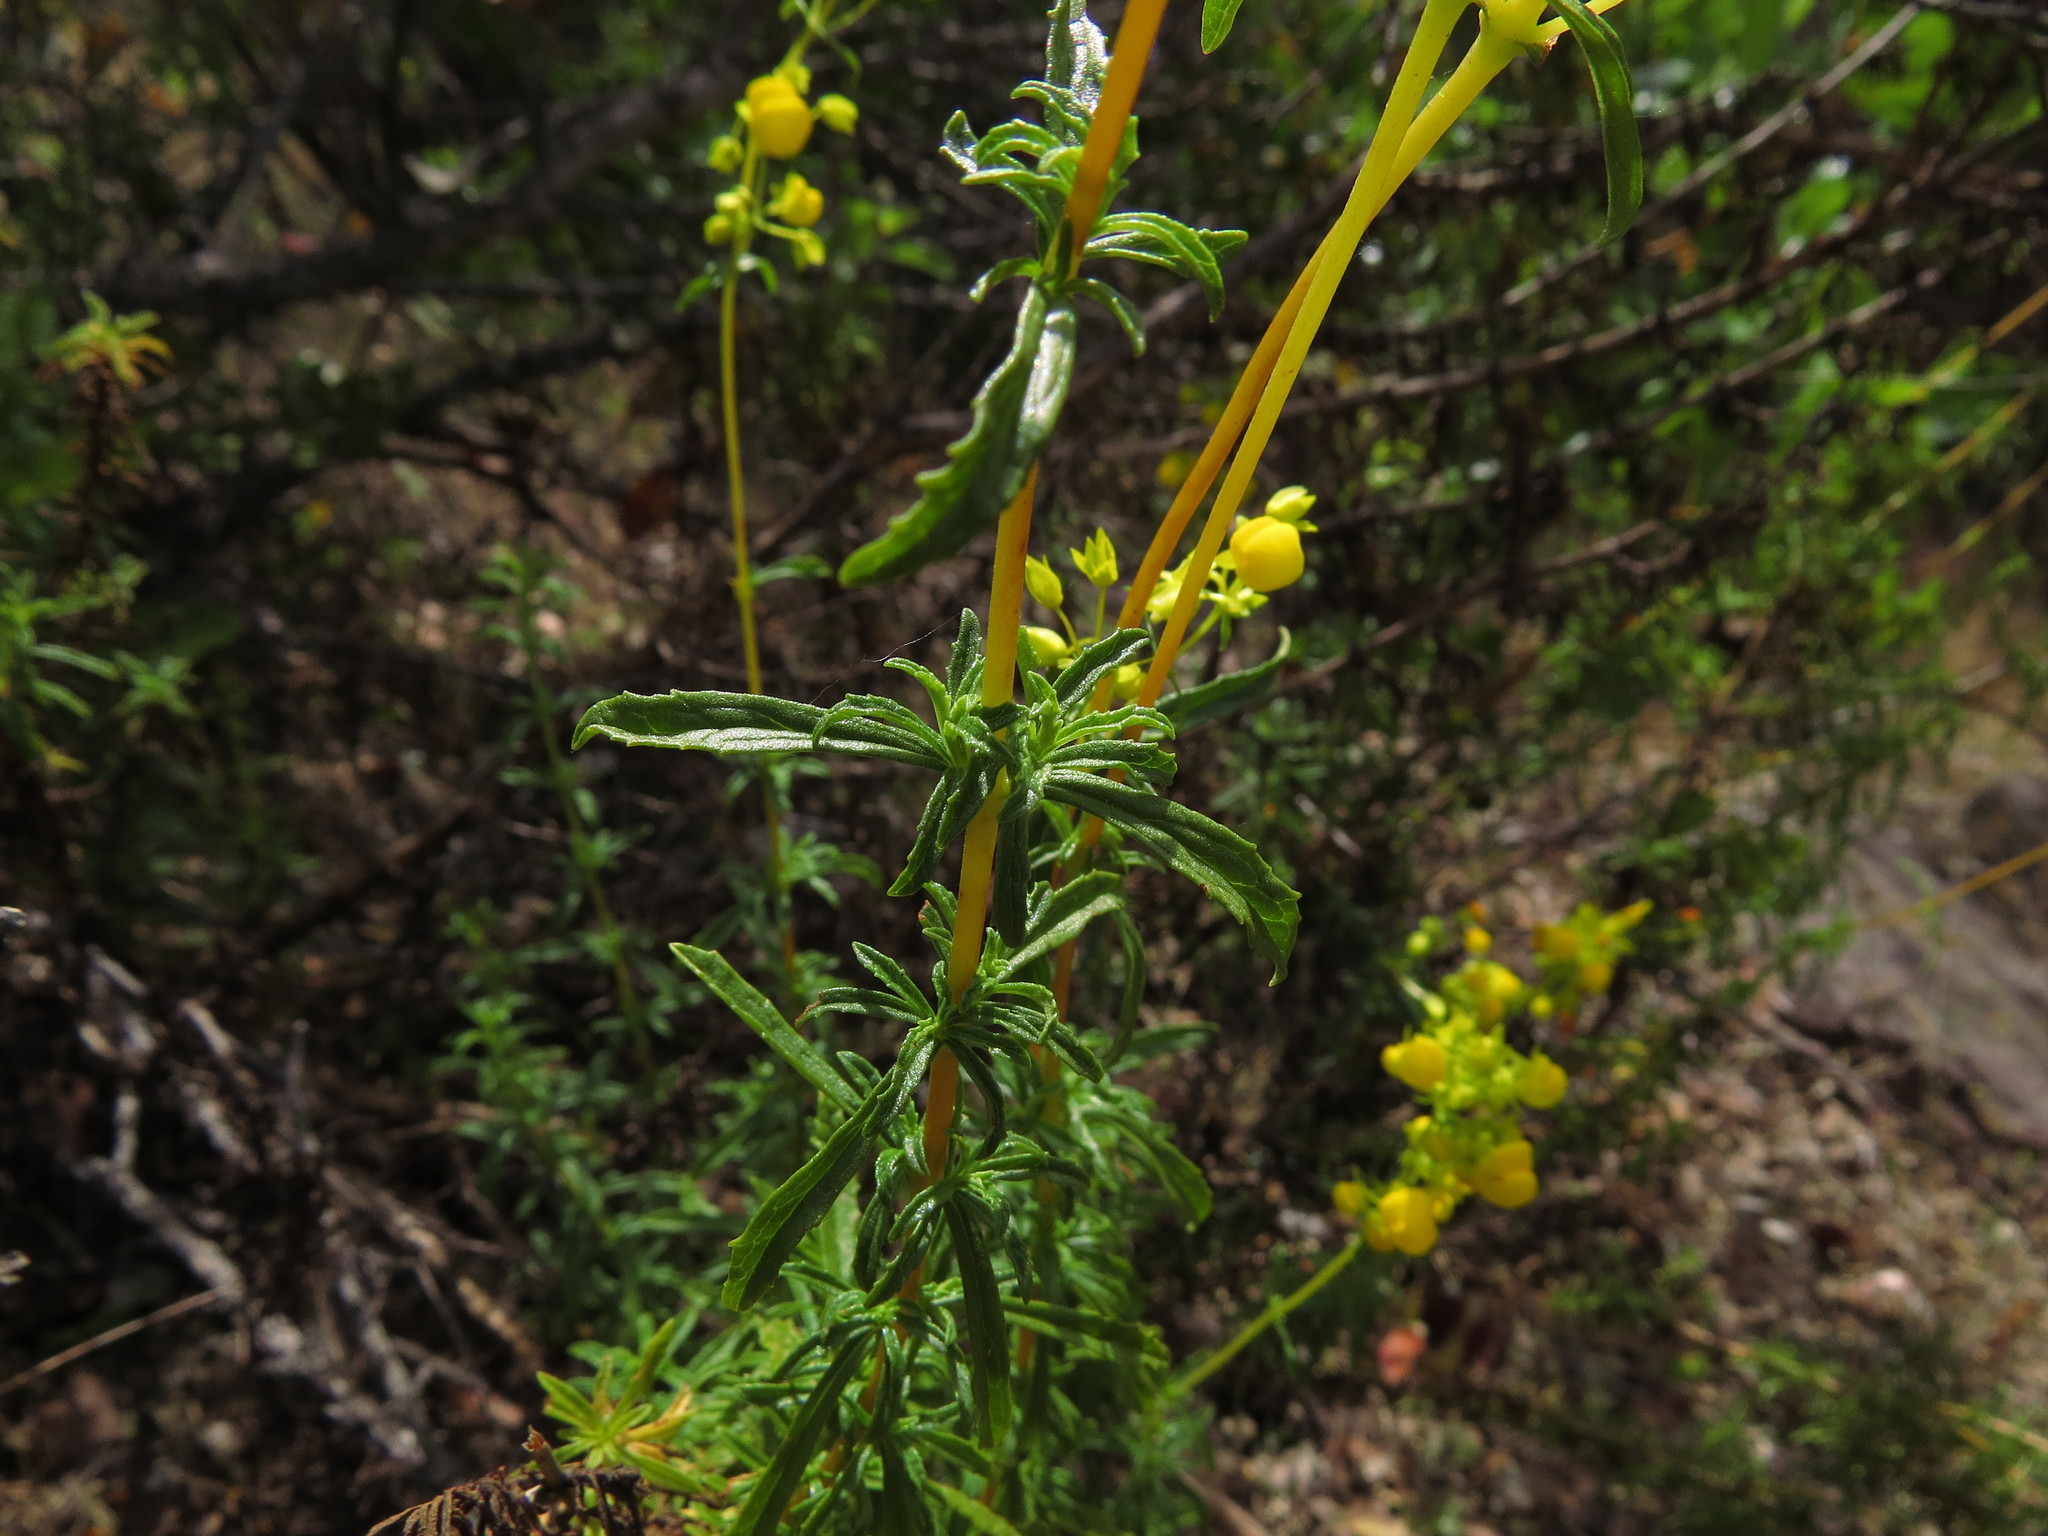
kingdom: Plantae
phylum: Tracheophyta
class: Magnoliopsida
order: Lamiales
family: Calceolariaceae
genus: Calceolaria
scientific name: Calceolaria thyrsiflora
